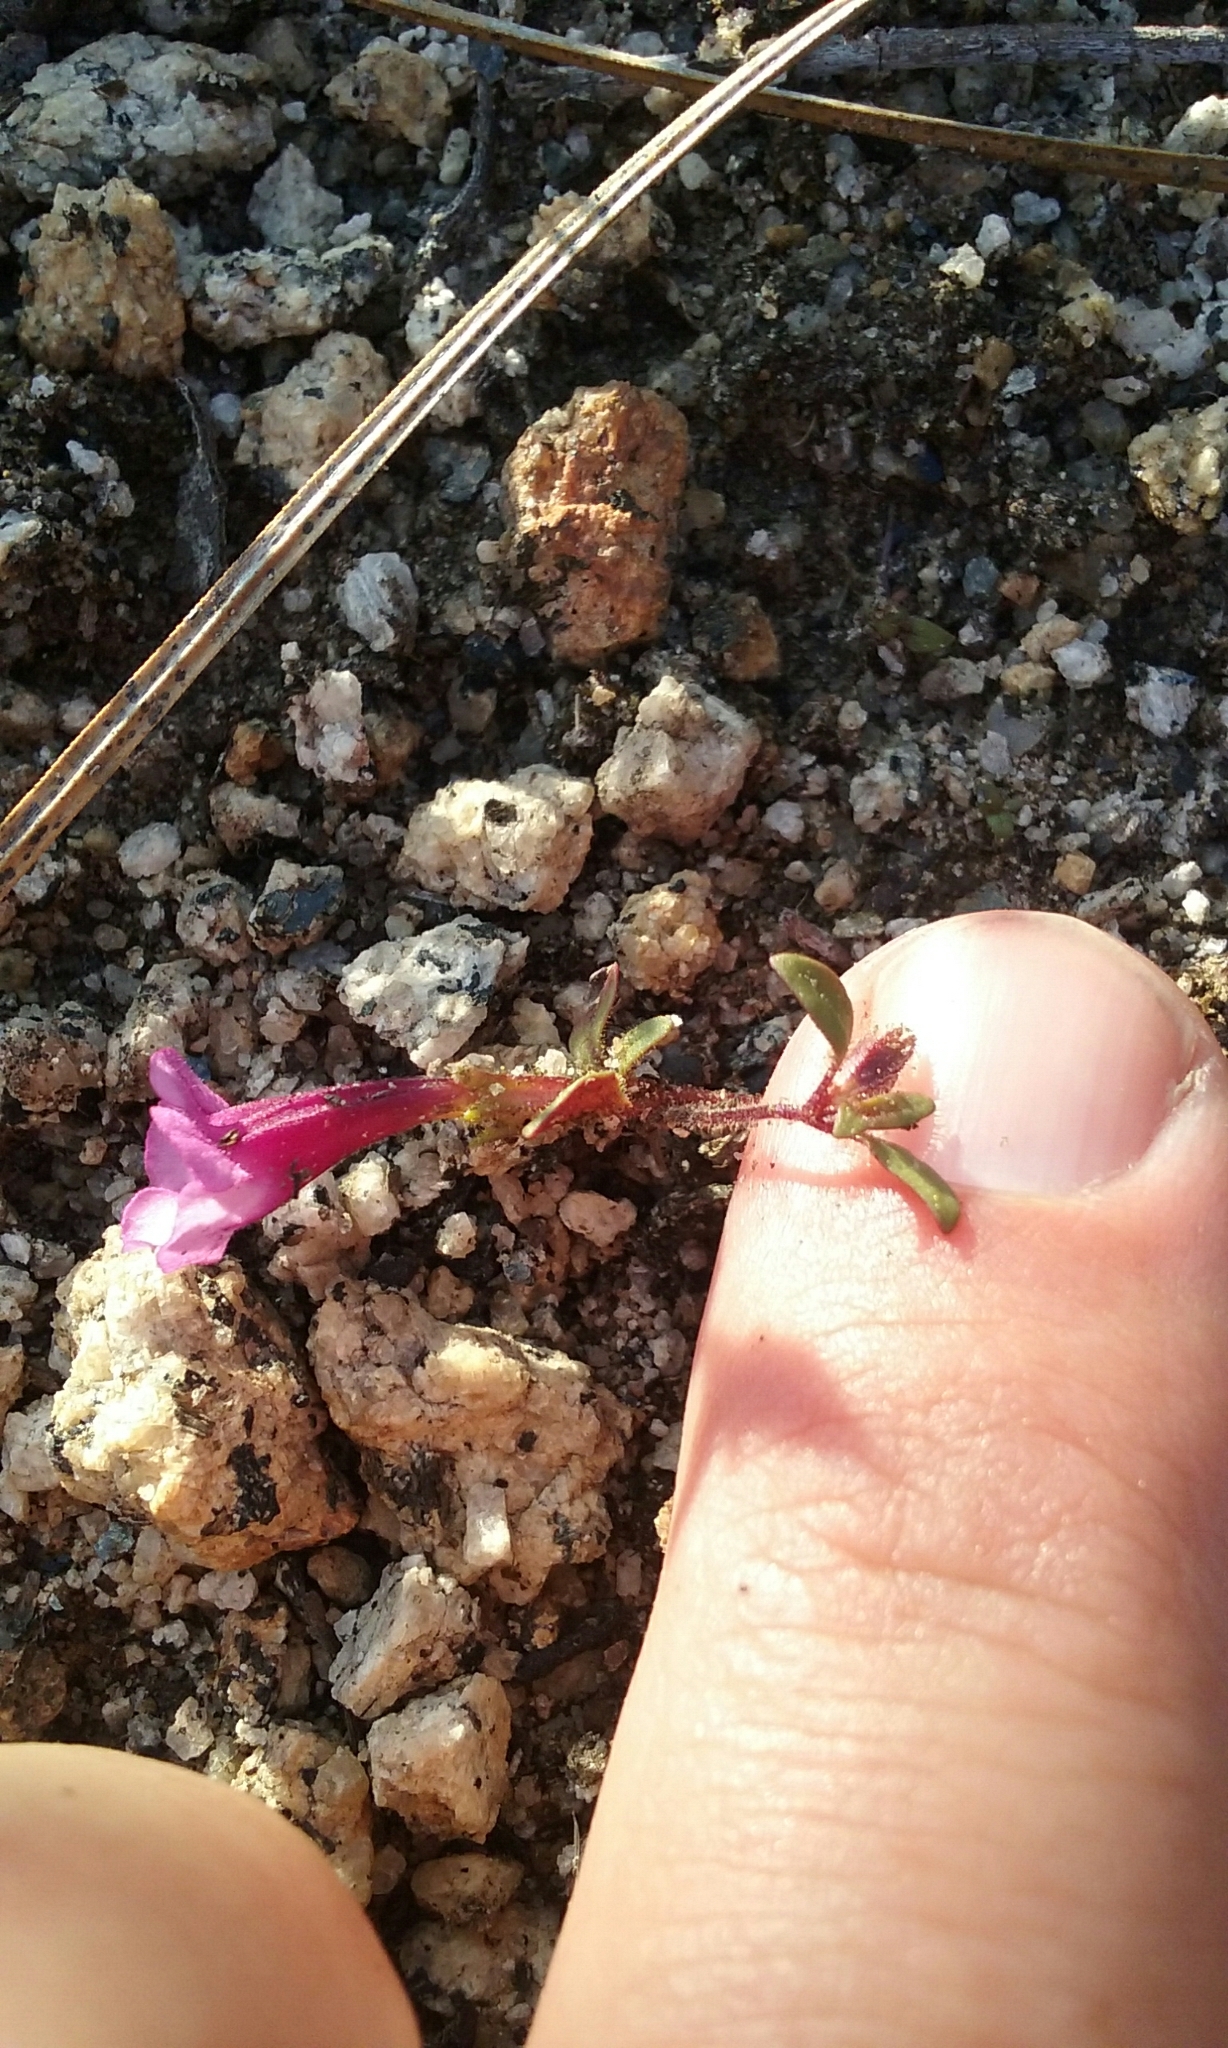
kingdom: Plantae
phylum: Tracheophyta
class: Magnoliopsida
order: Lamiales
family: Phrymaceae
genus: Diplacus
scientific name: Diplacus torreyi
